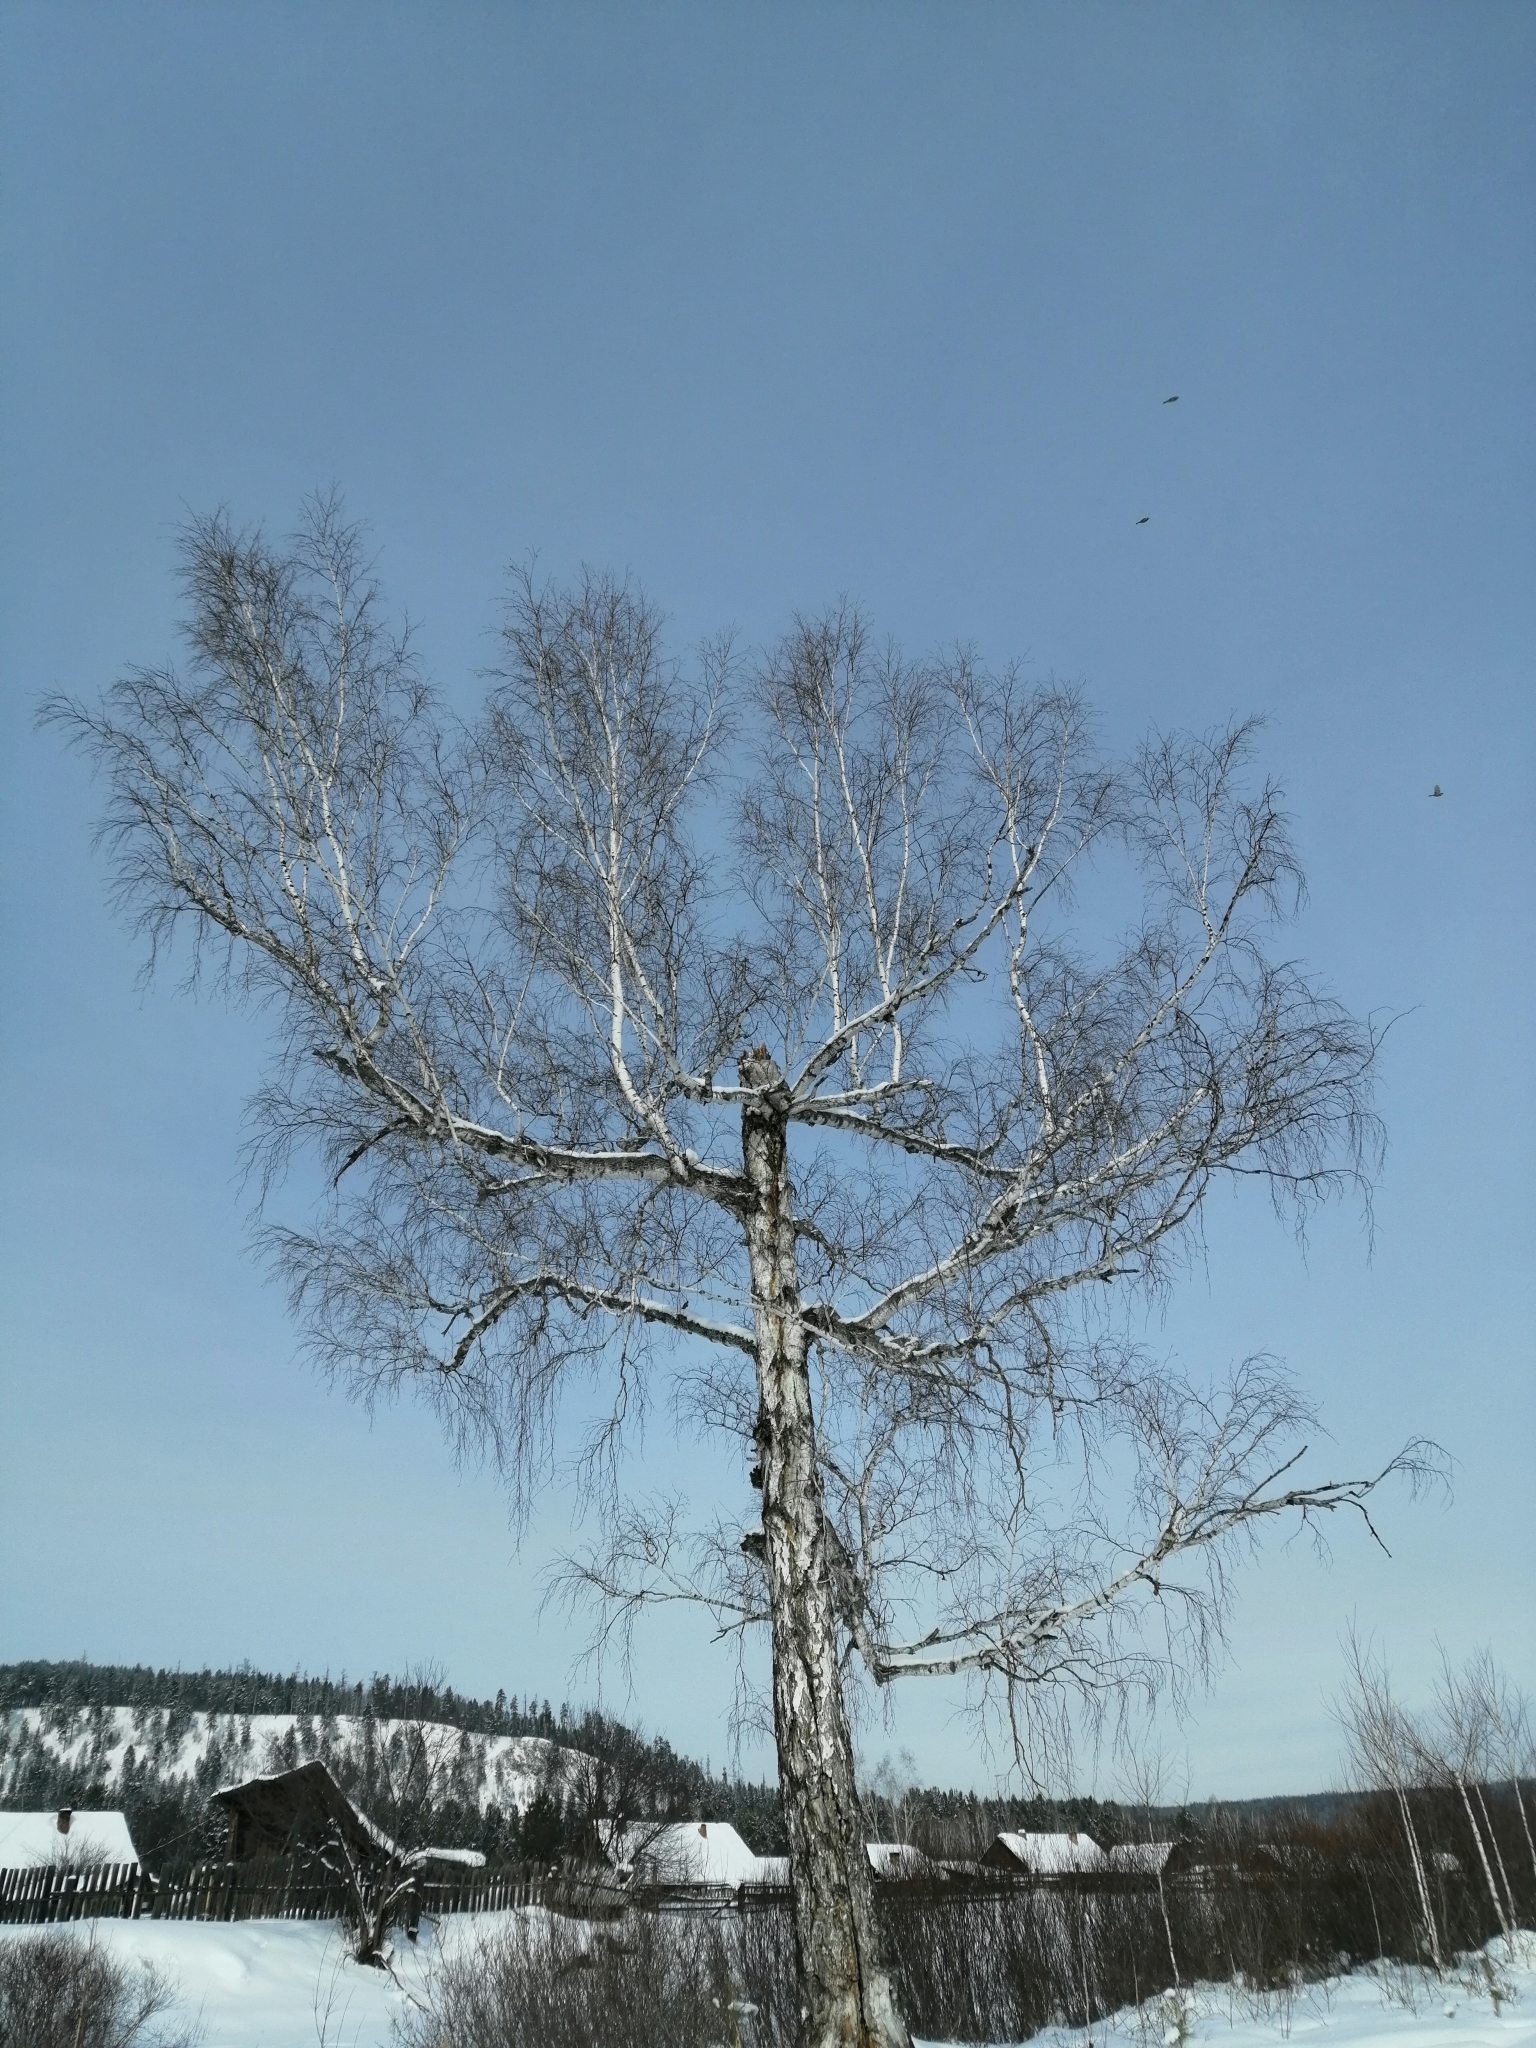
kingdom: Plantae
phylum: Tracheophyta
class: Magnoliopsida
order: Fagales
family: Betulaceae
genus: Betula
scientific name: Betula pendula
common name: Silver birch
